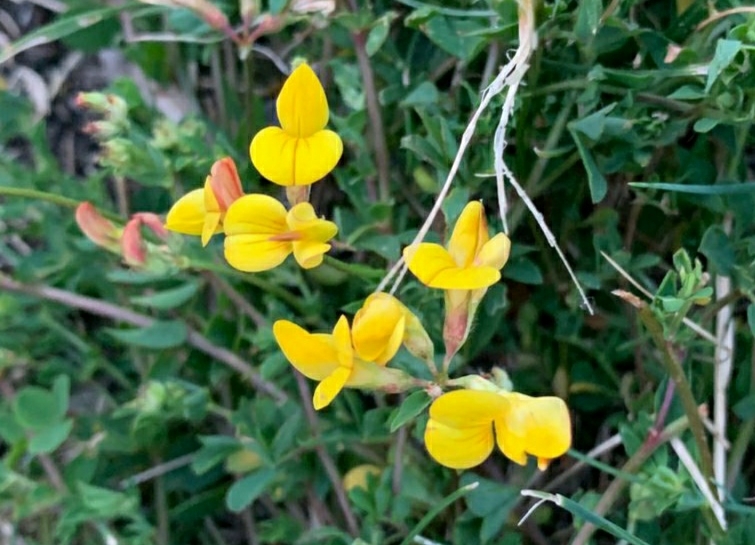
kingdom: Plantae
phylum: Tracheophyta
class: Magnoliopsida
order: Fabales
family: Fabaceae
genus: Lotus
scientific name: Lotus corniculatus
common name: Common bird's-foot-trefoil
